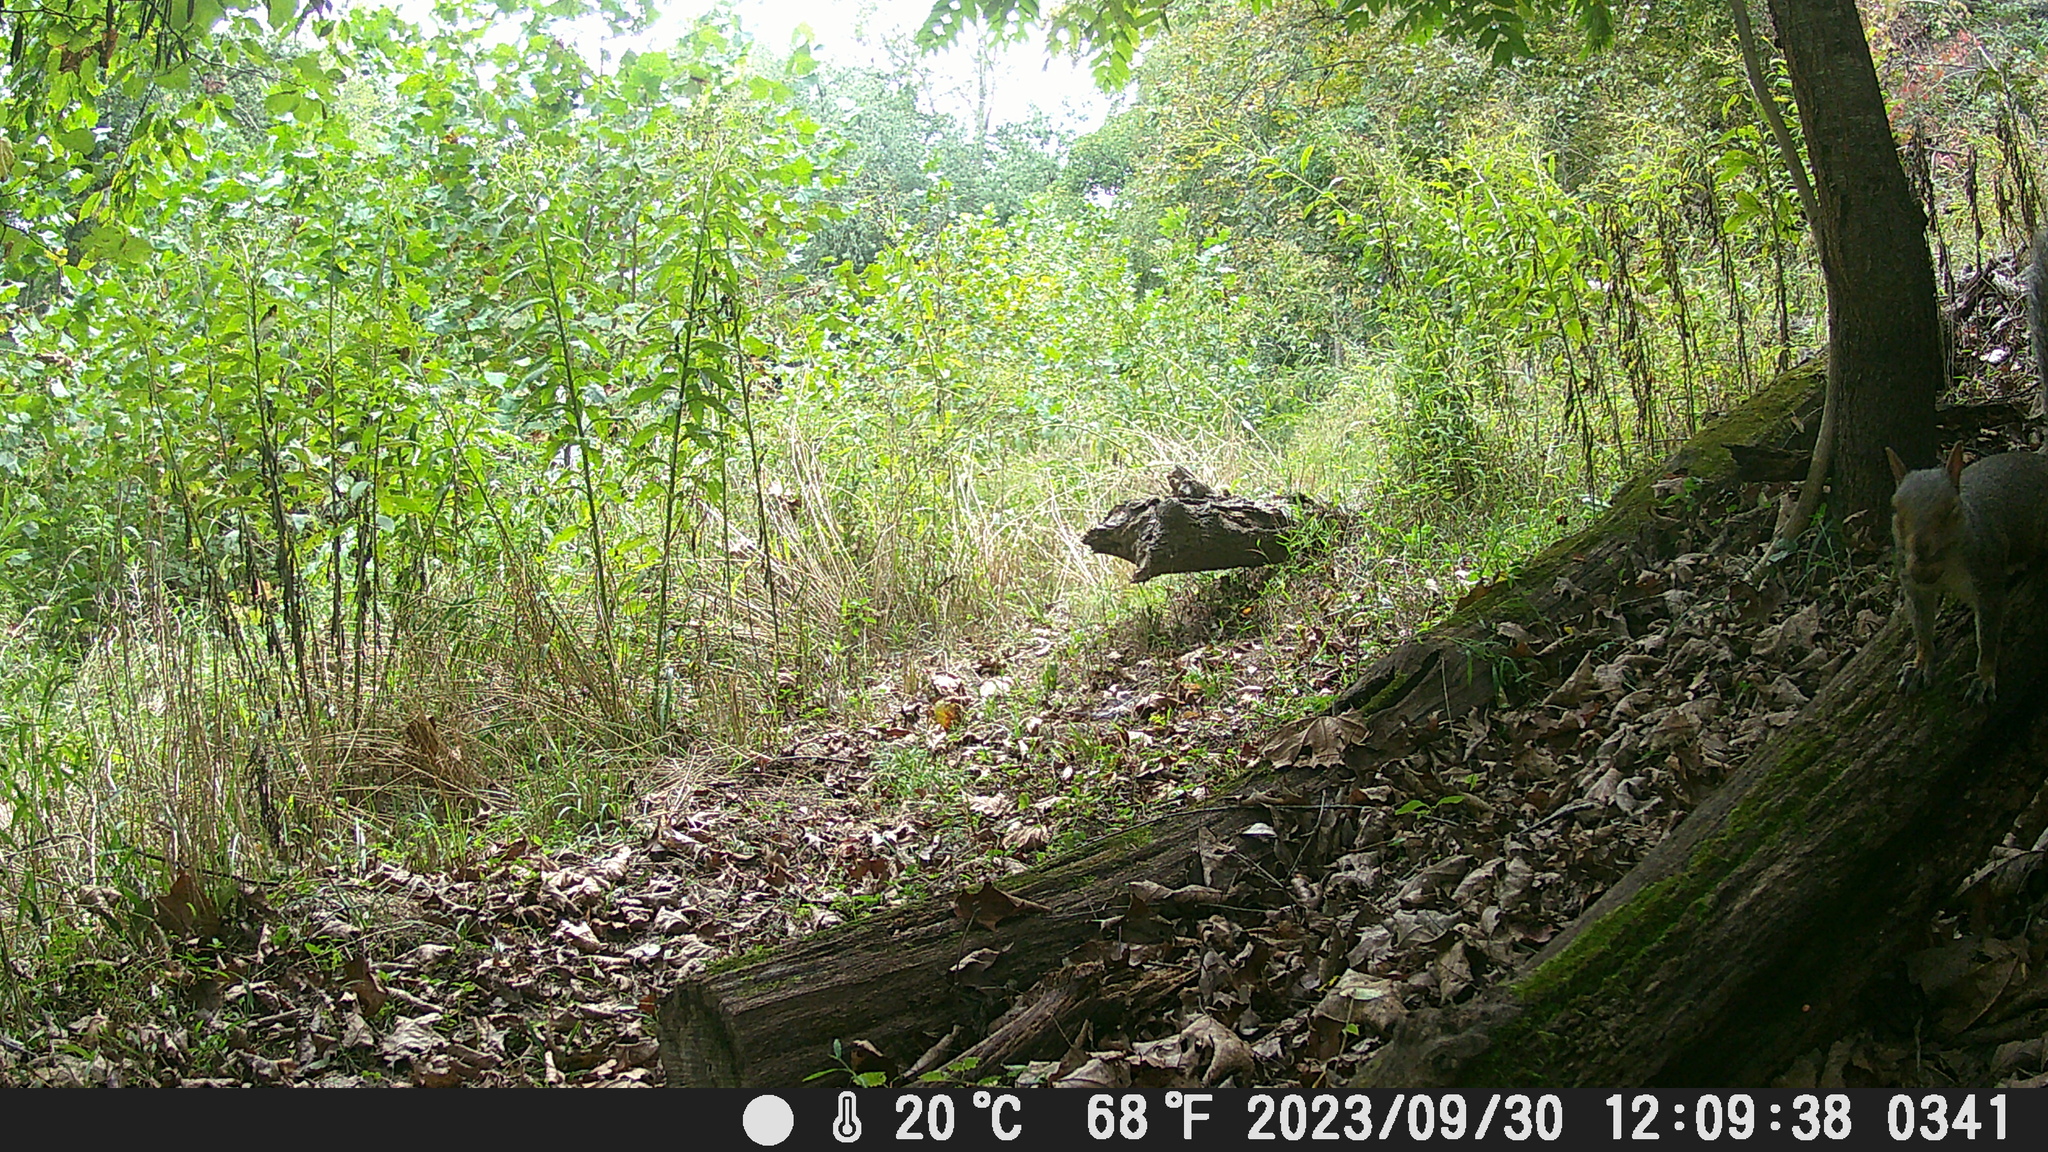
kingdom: Animalia
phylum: Chordata
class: Mammalia
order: Rodentia
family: Sciuridae
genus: Sciurus
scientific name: Sciurus carolinensis
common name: Eastern gray squirrel
